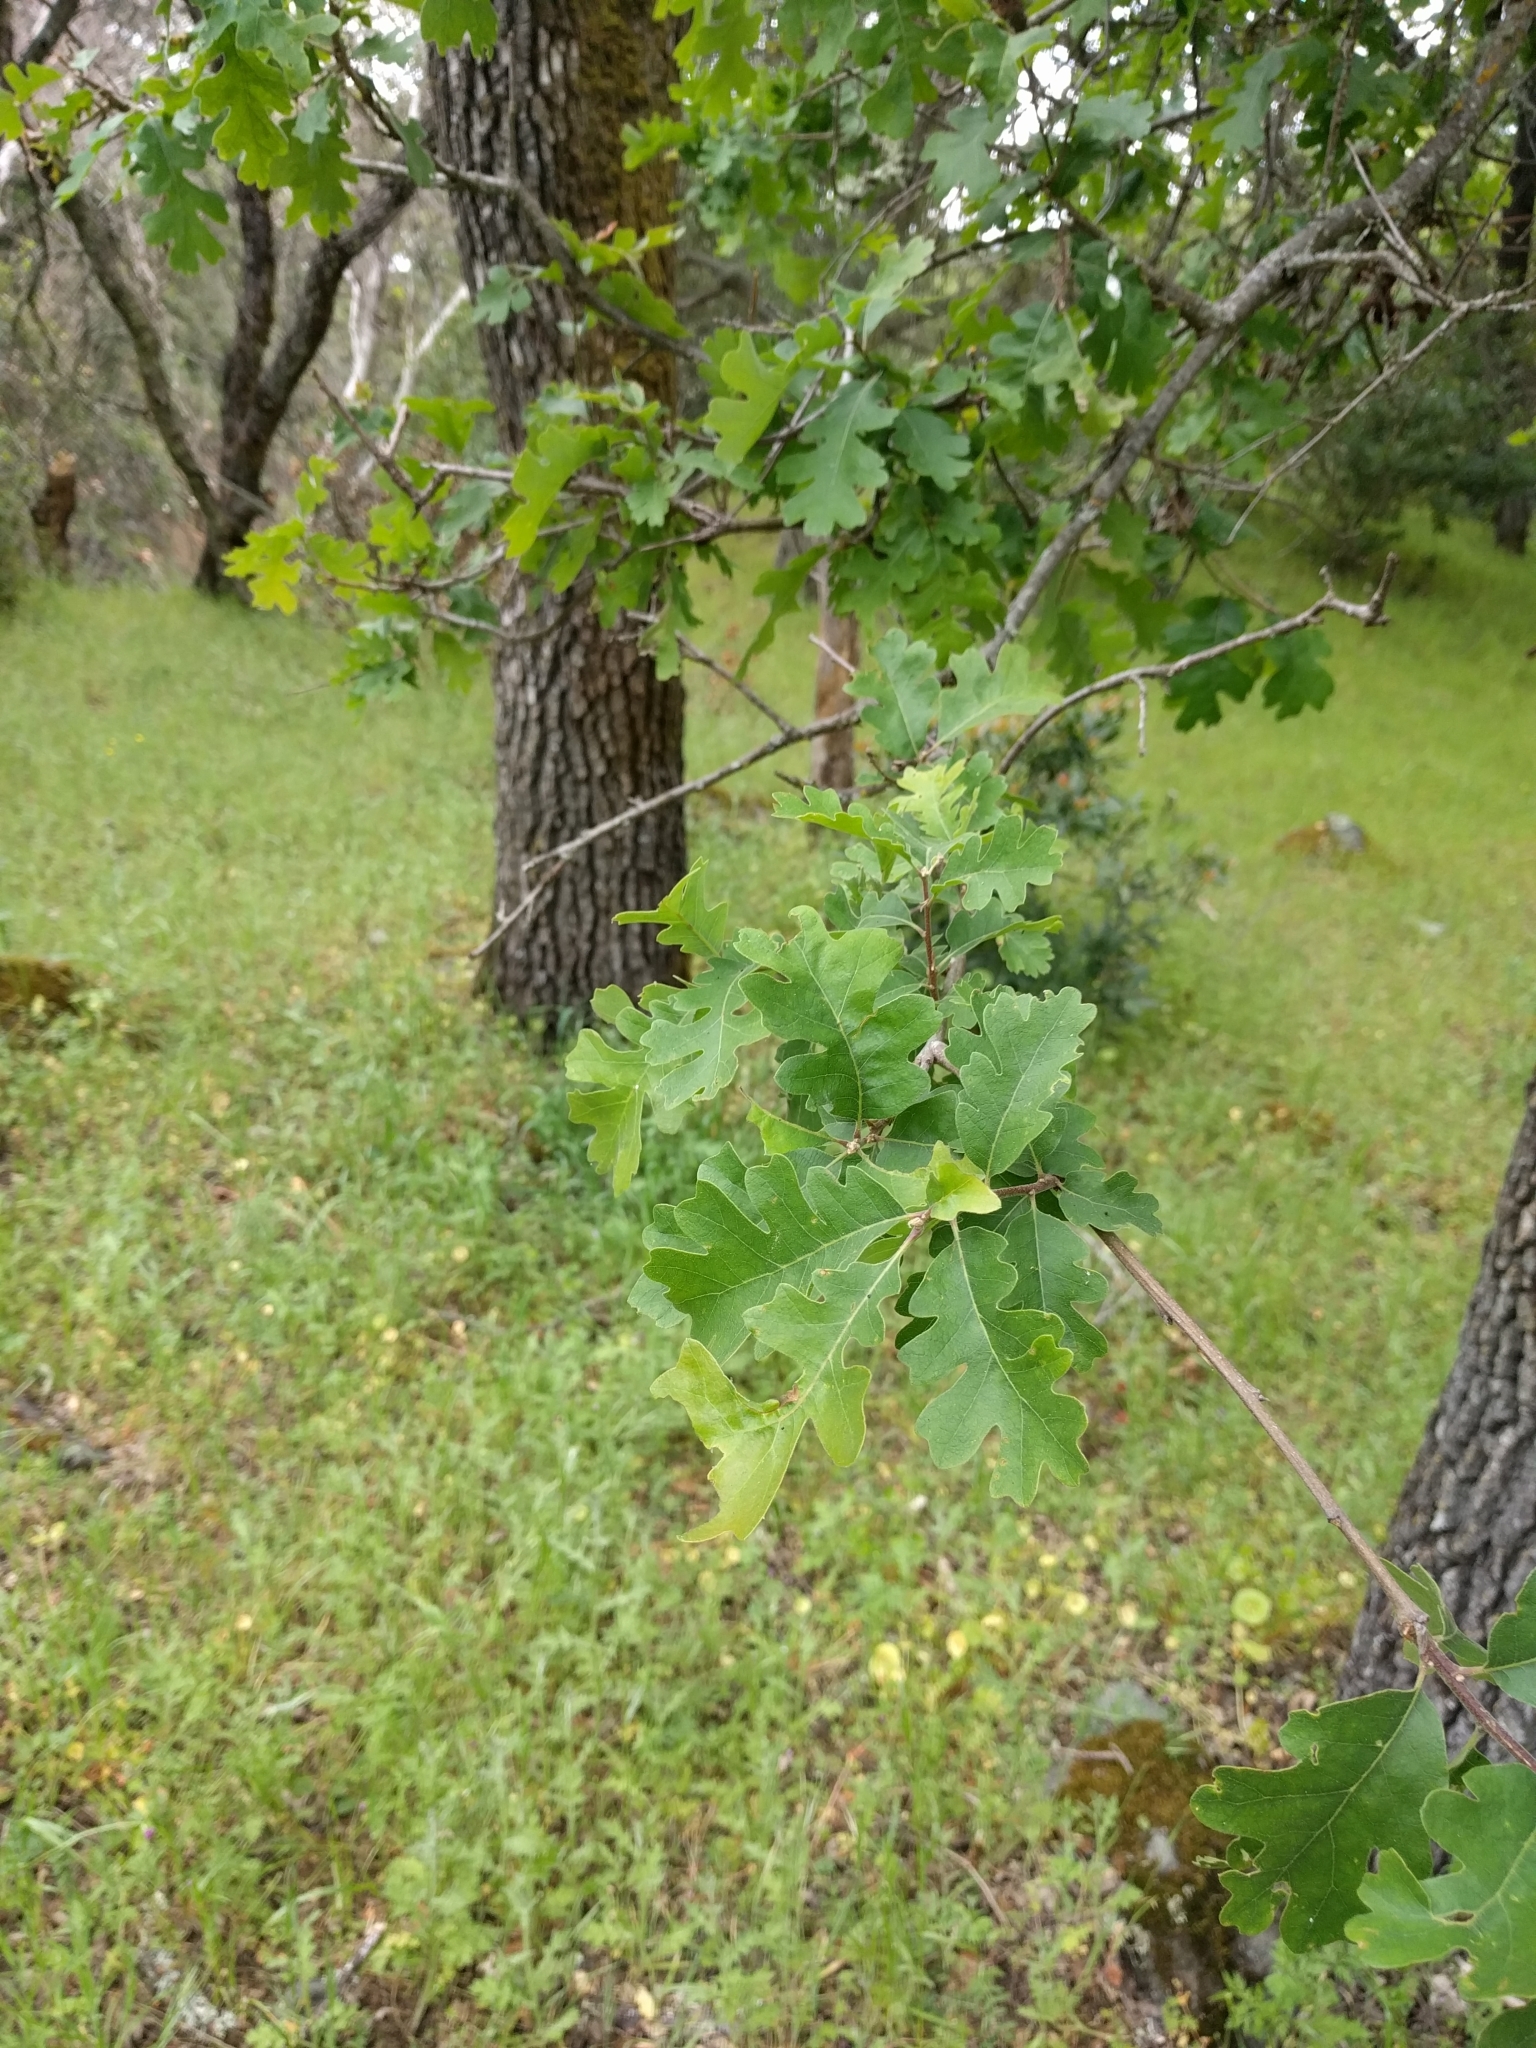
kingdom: Plantae
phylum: Tracheophyta
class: Magnoliopsida
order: Fagales
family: Fagaceae
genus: Quercus
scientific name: Quercus lobata
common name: Valley oak
